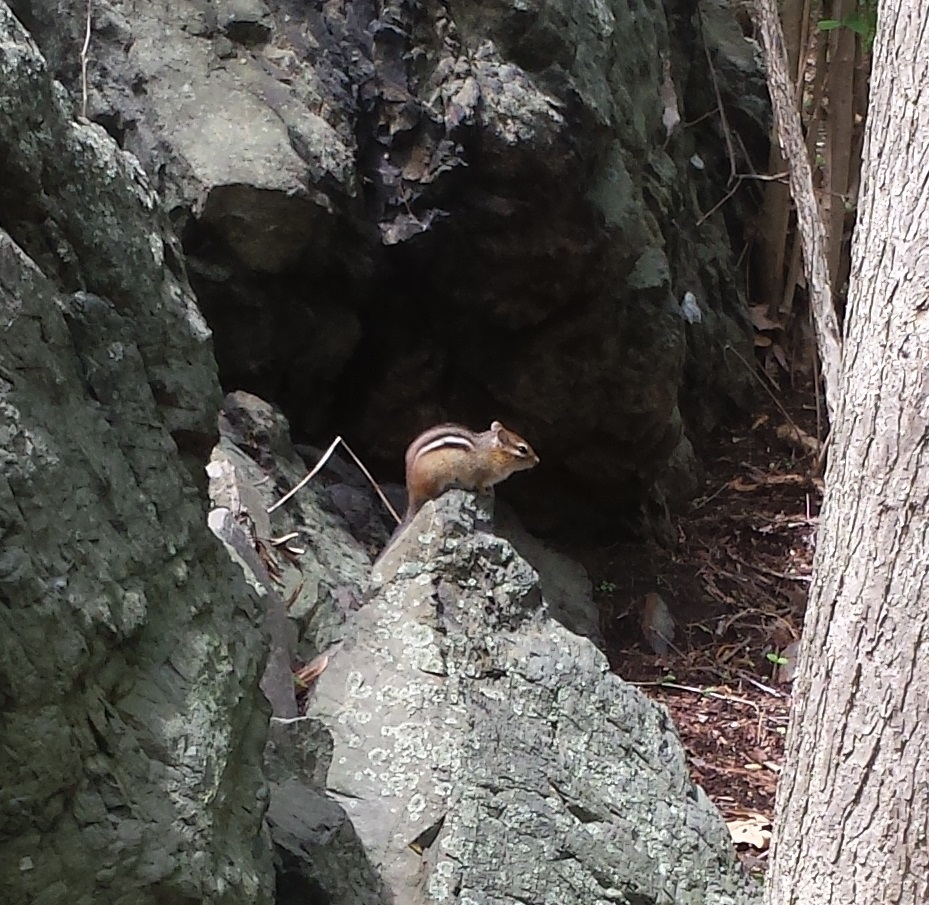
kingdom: Animalia
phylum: Chordata
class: Mammalia
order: Rodentia
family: Sciuridae
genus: Tamias
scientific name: Tamias striatus
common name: Eastern chipmunk
